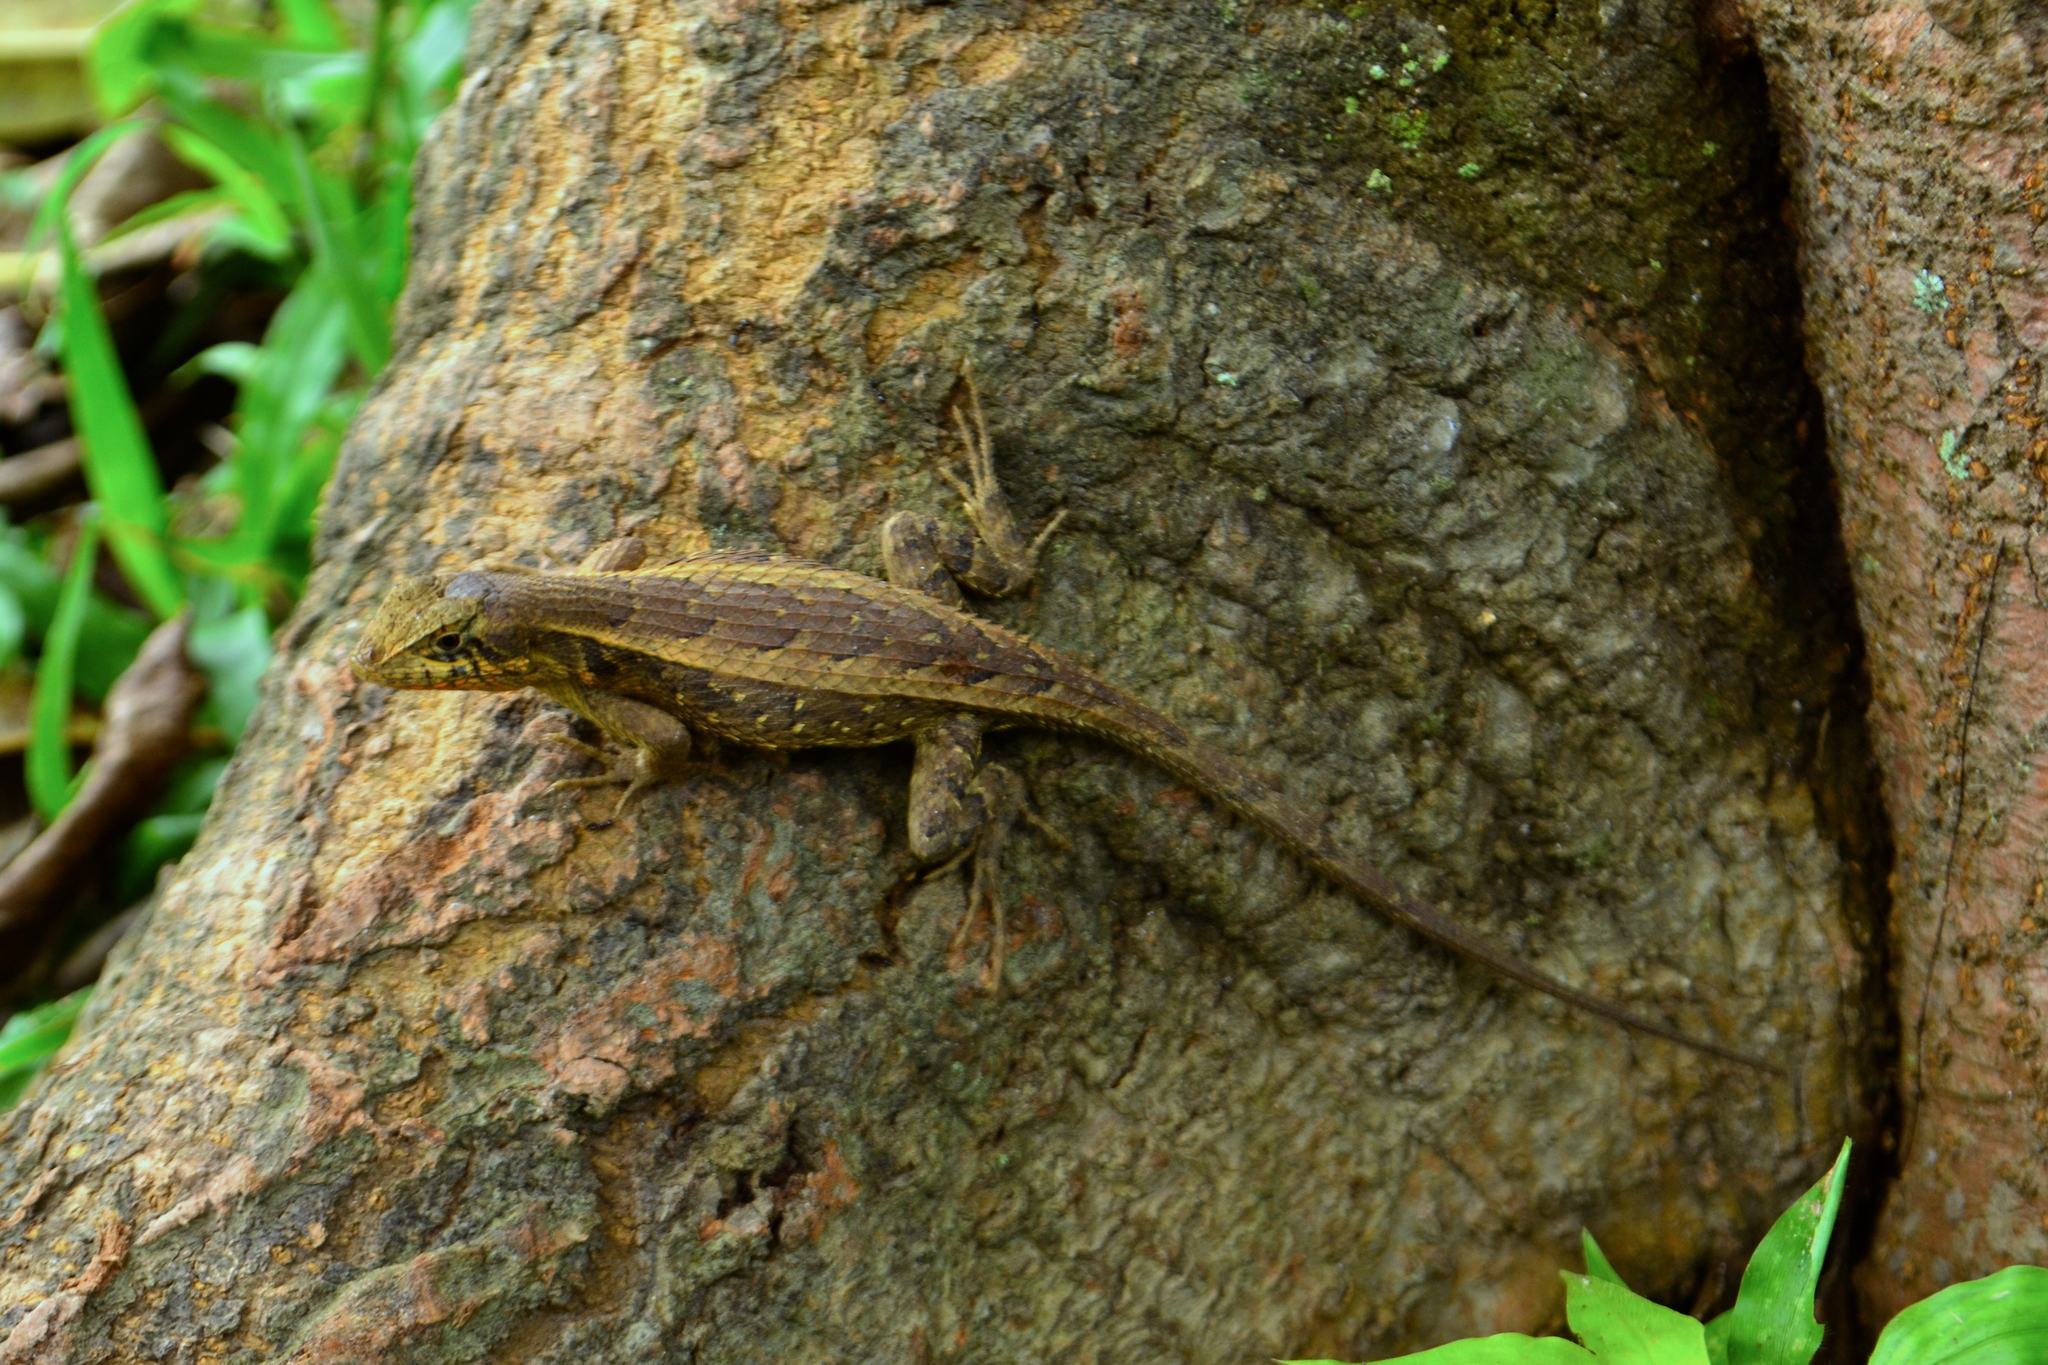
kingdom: Animalia
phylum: Chordata
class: Squamata
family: Phrynosomatidae
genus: Sceloporus
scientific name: Sceloporus siniferus
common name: Longtail spiny lizard
